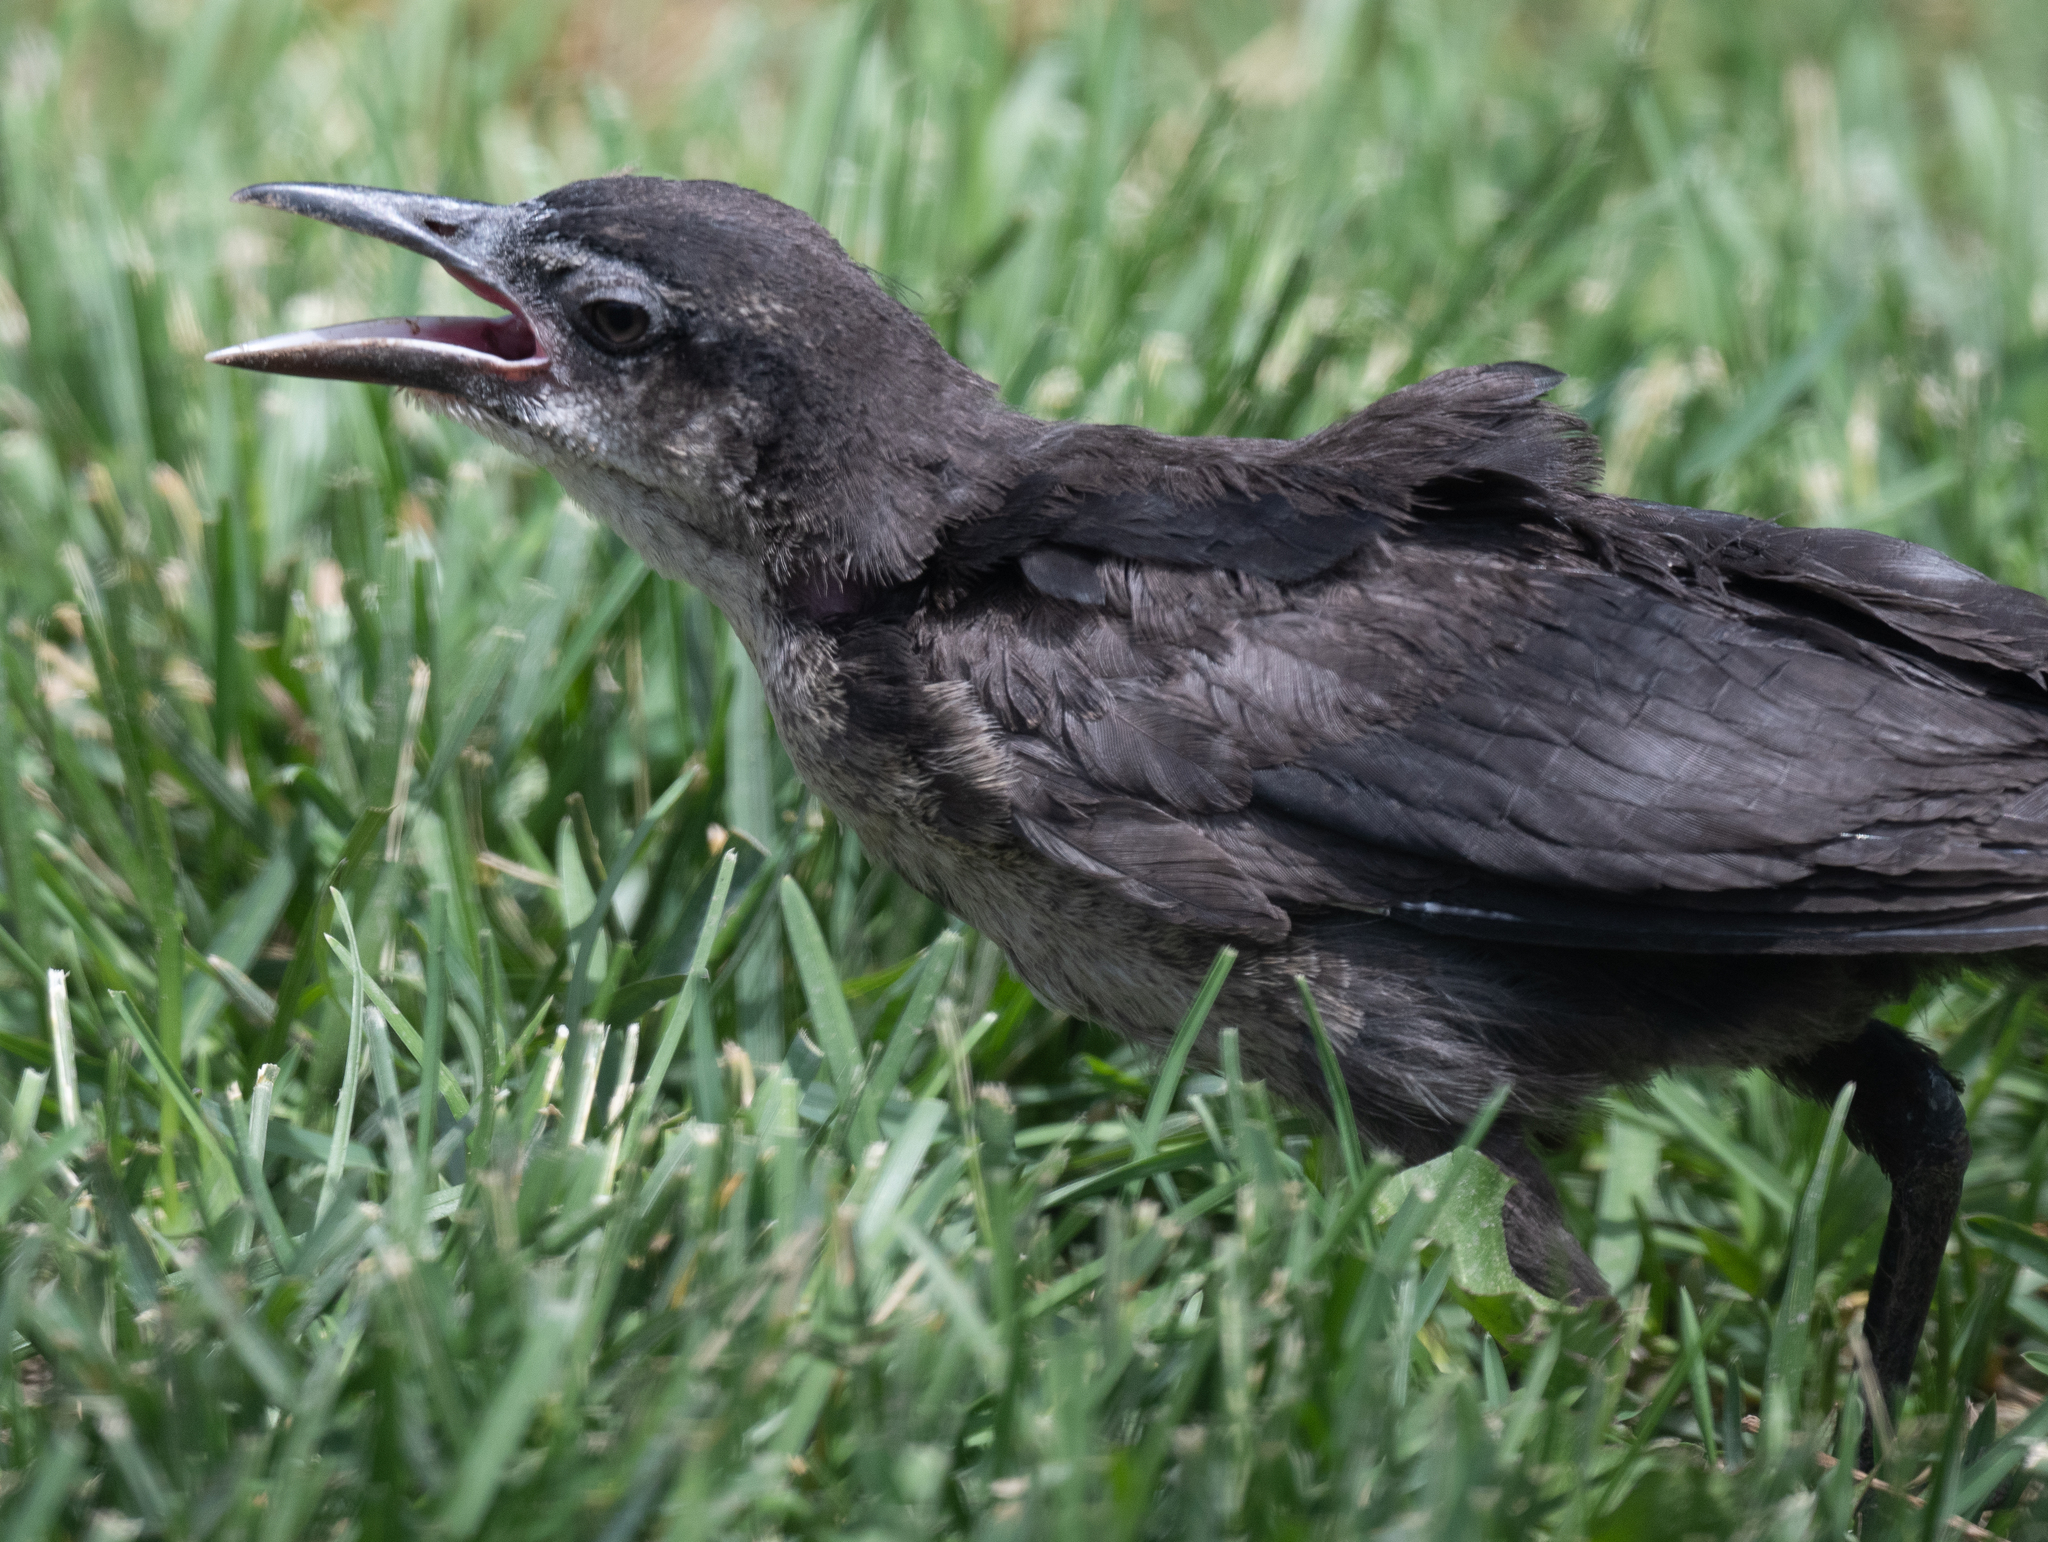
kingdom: Animalia
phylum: Chordata
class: Aves
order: Passeriformes
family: Icteridae
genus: Quiscalus
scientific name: Quiscalus mexicanus
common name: Great-tailed grackle
